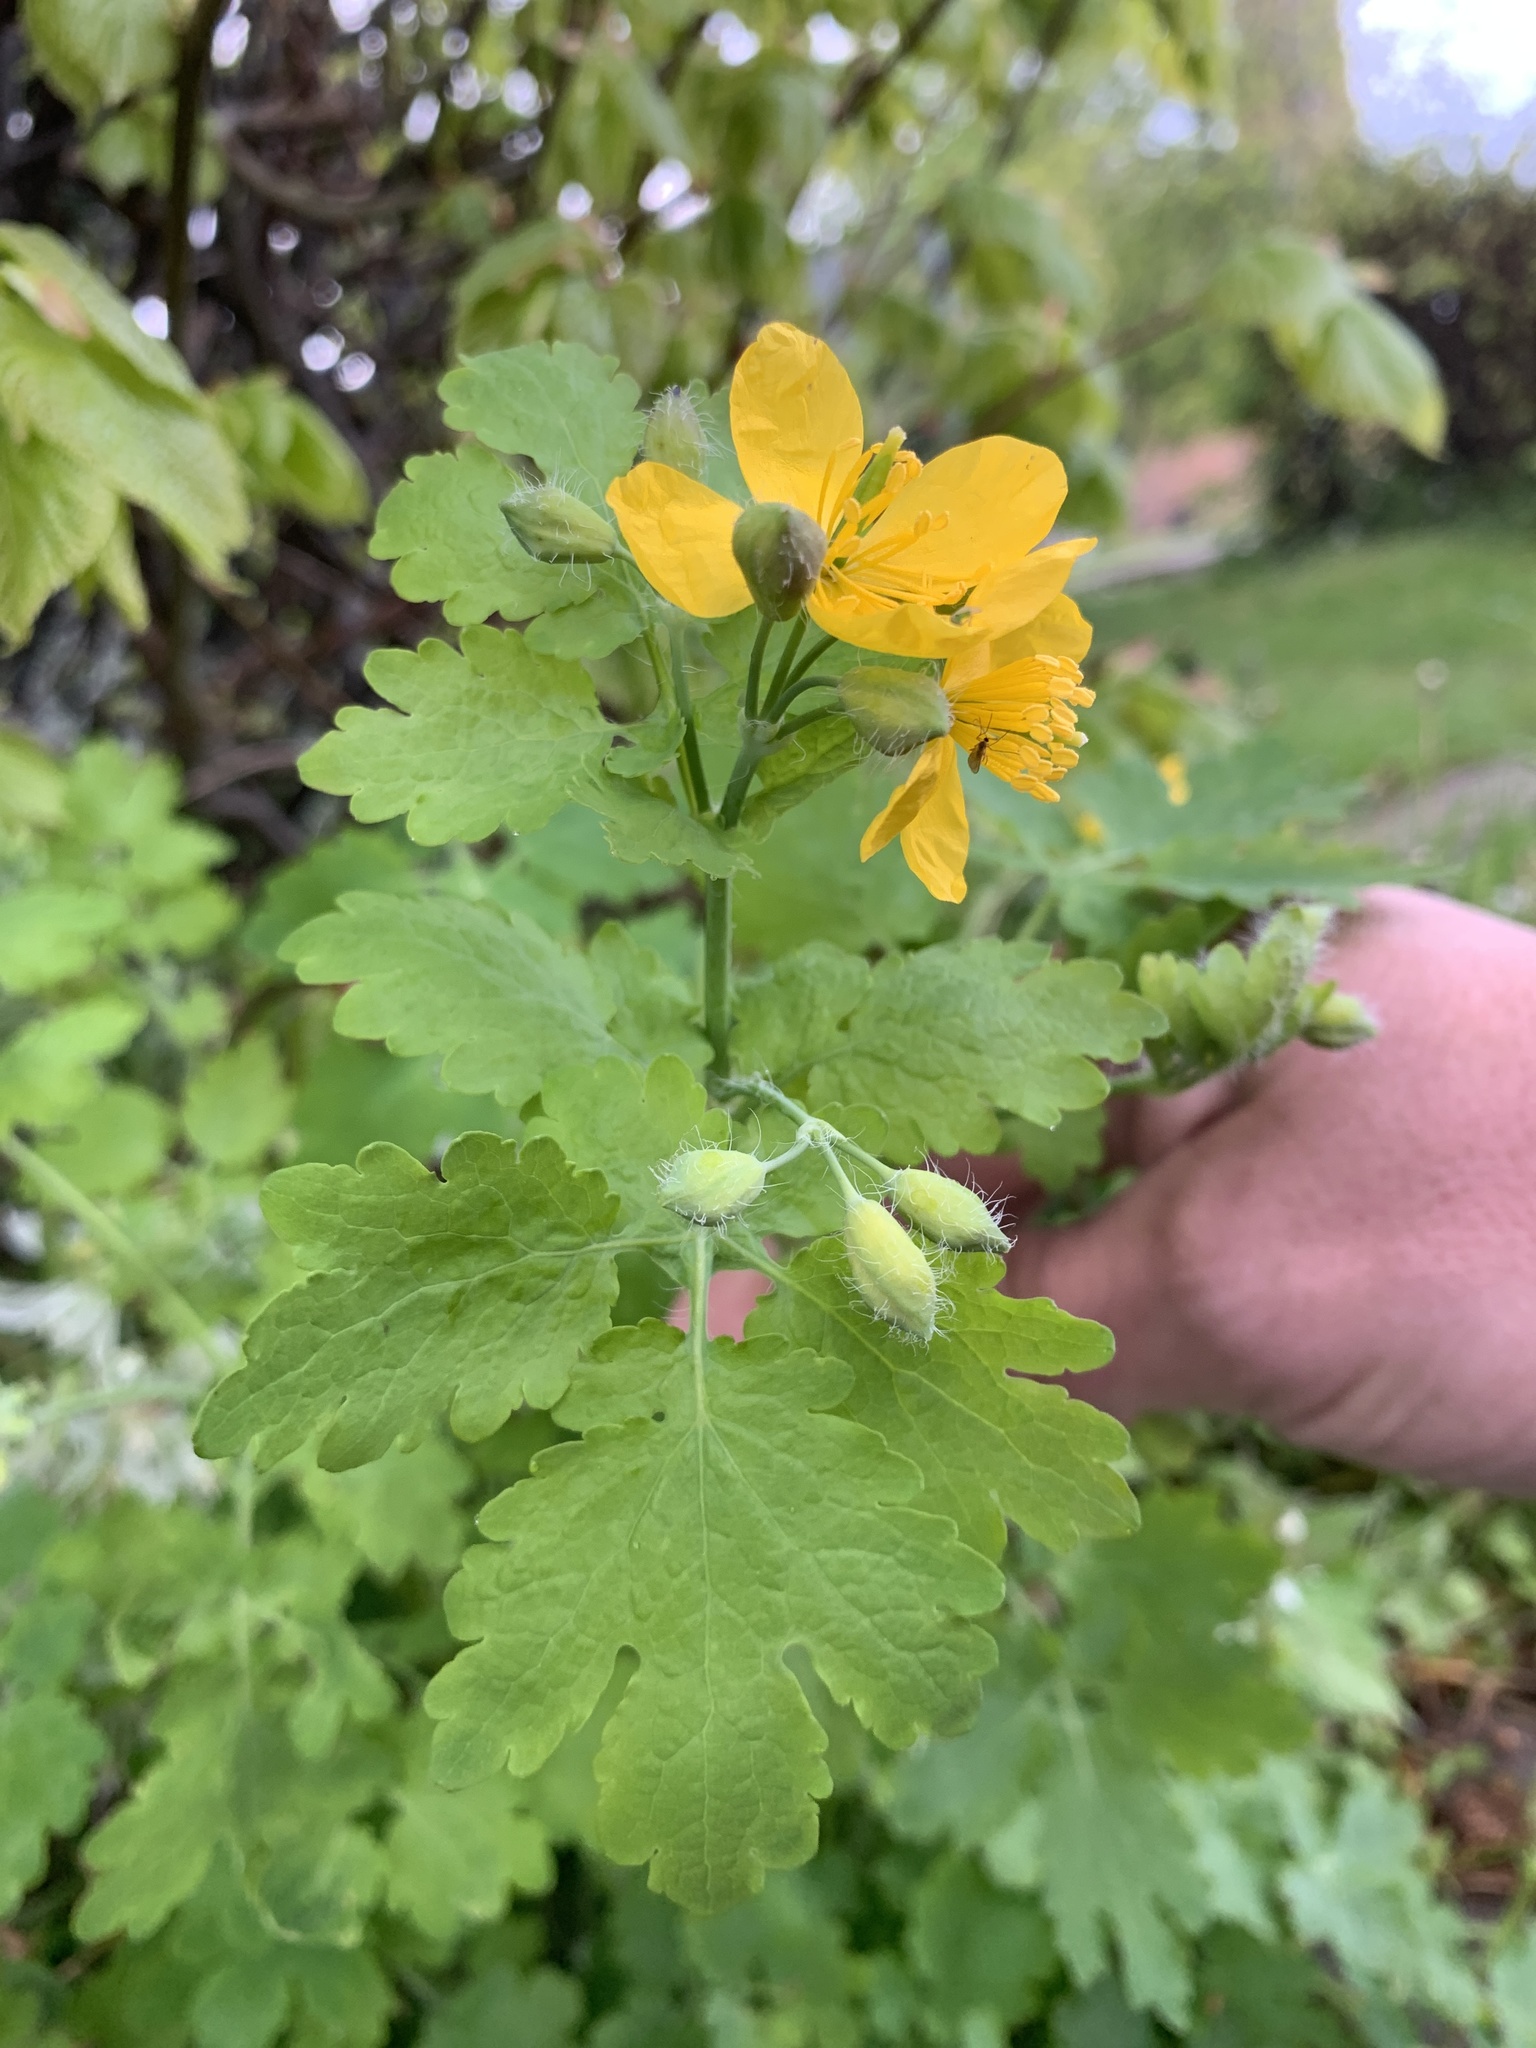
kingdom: Plantae
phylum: Tracheophyta
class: Magnoliopsida
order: Ranunculales
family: Papaveraceae
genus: Chelidonium
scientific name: Chelidonium majus
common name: Greater celandine
